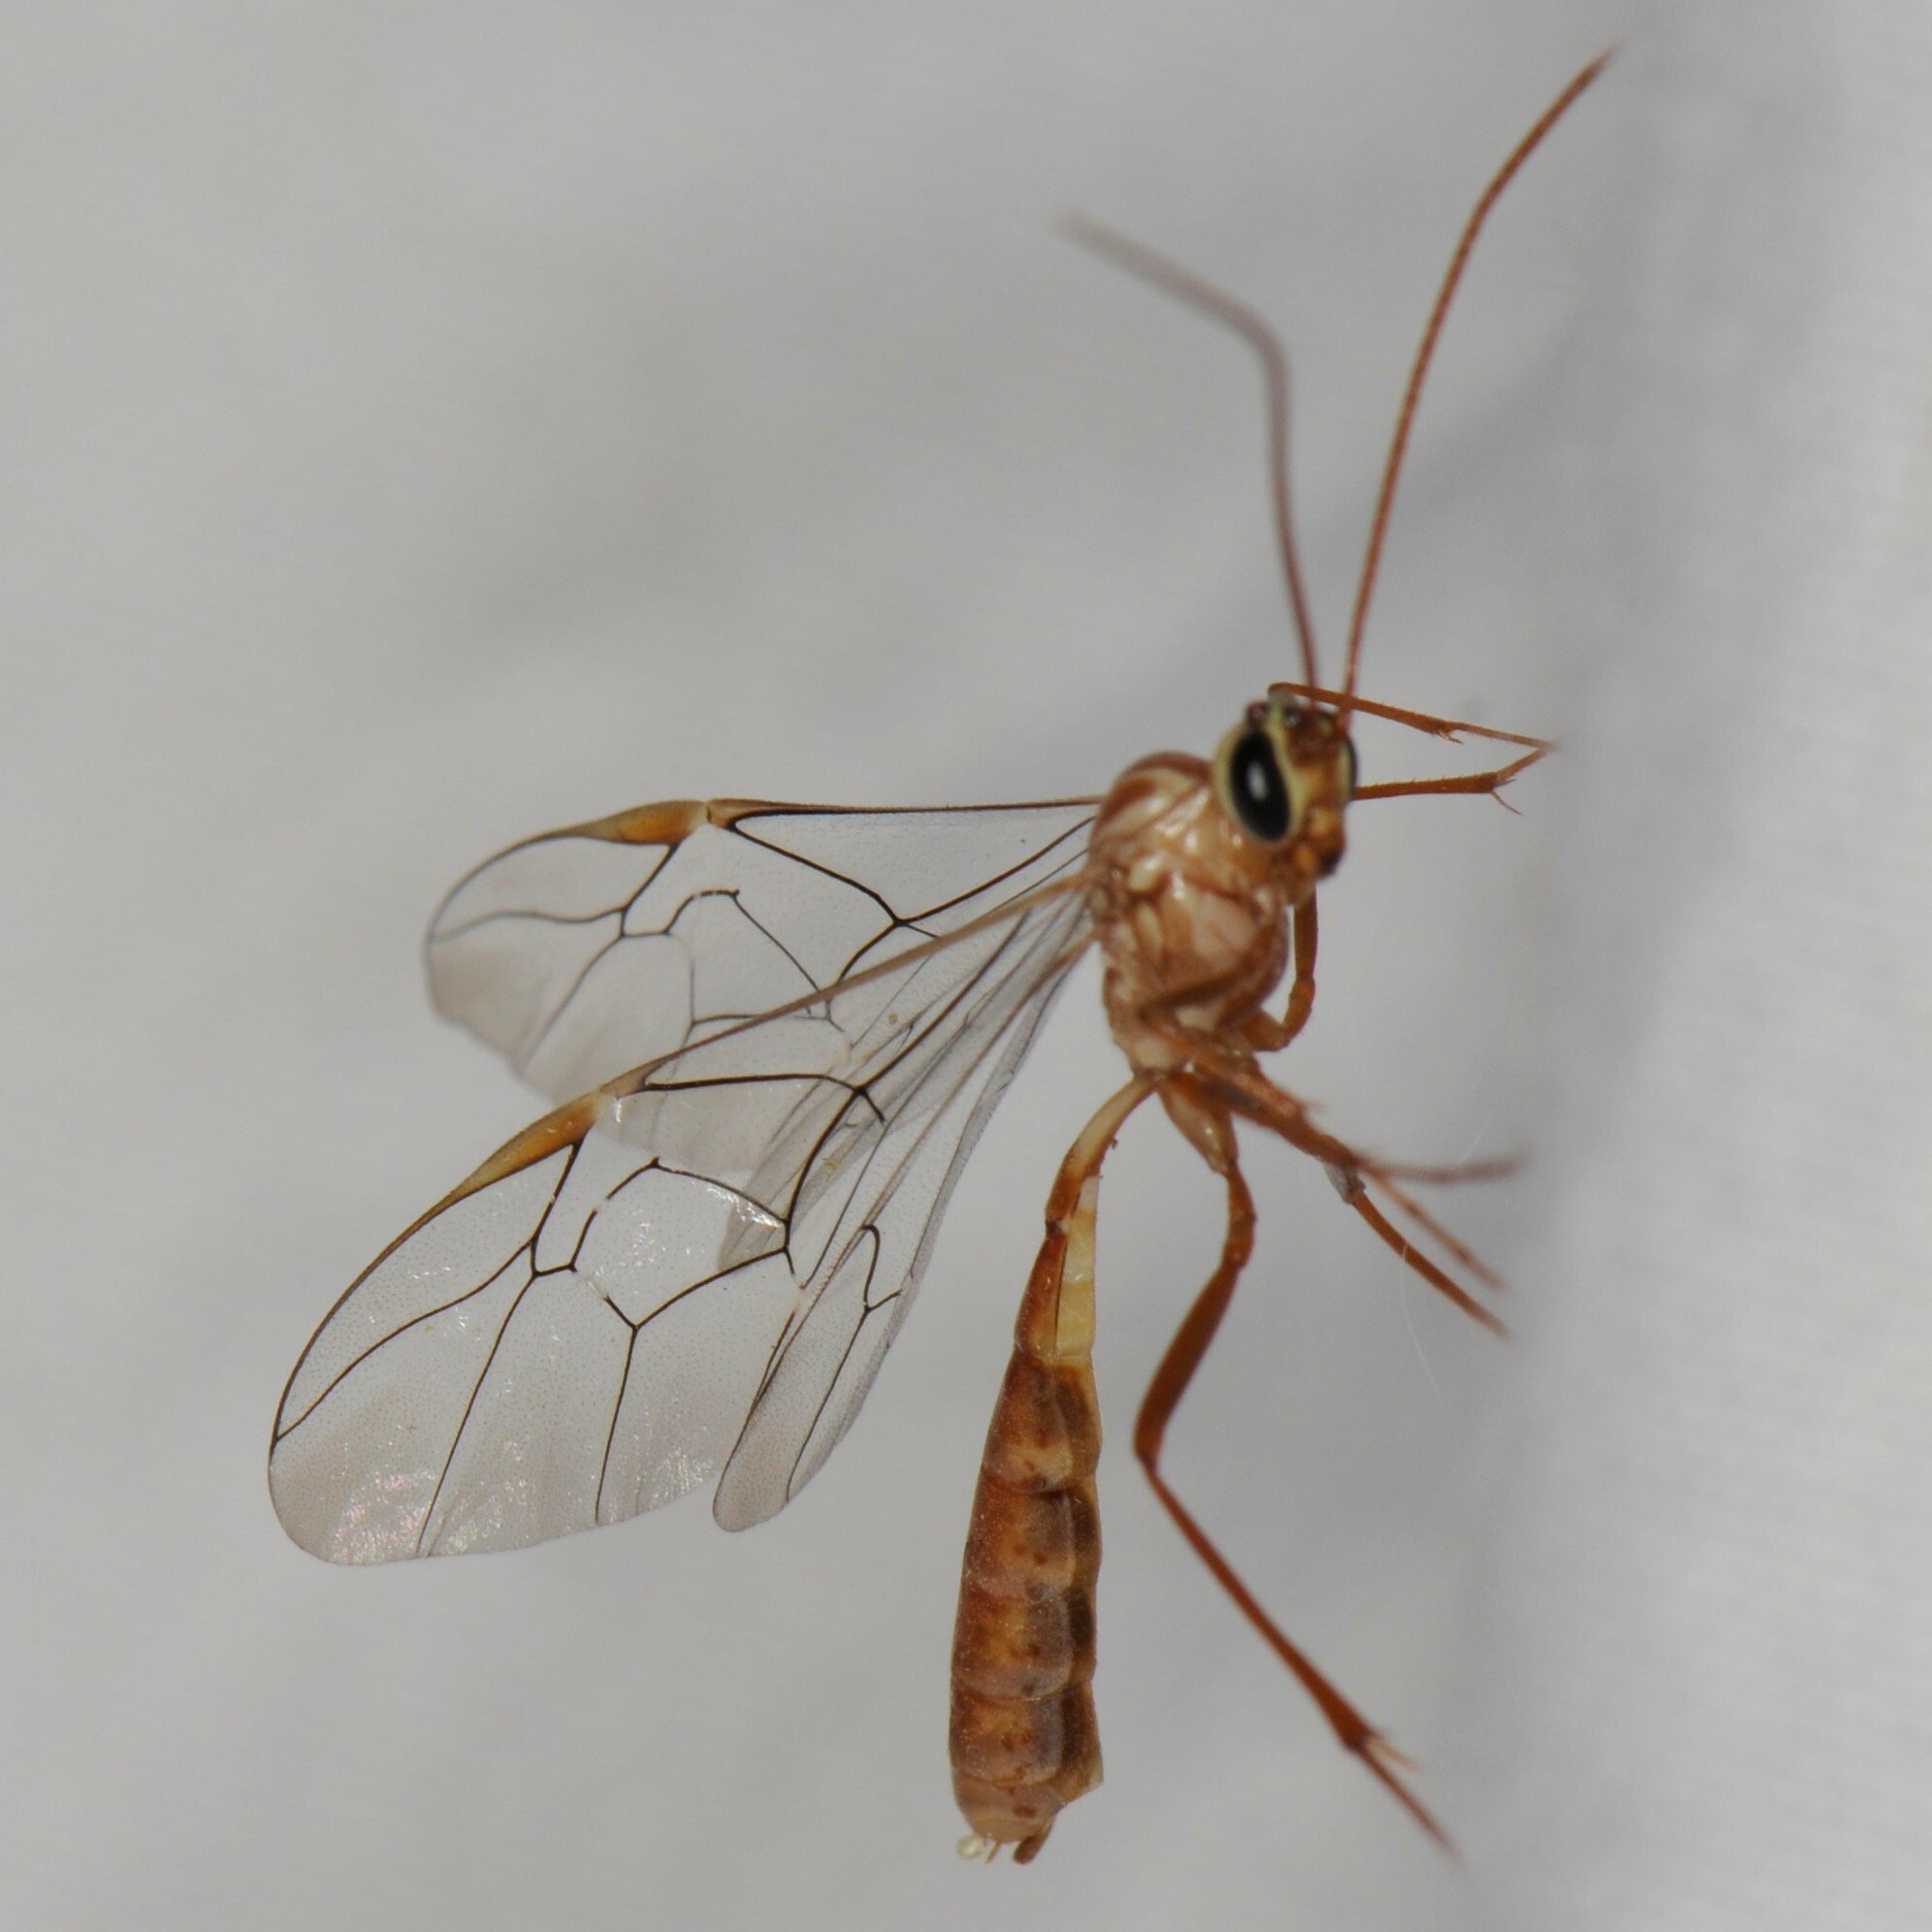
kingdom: Animalia
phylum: Arthropoda
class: Insecta
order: Hymenoptera
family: Ichneumonidae
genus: Ophion
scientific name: Ophion
